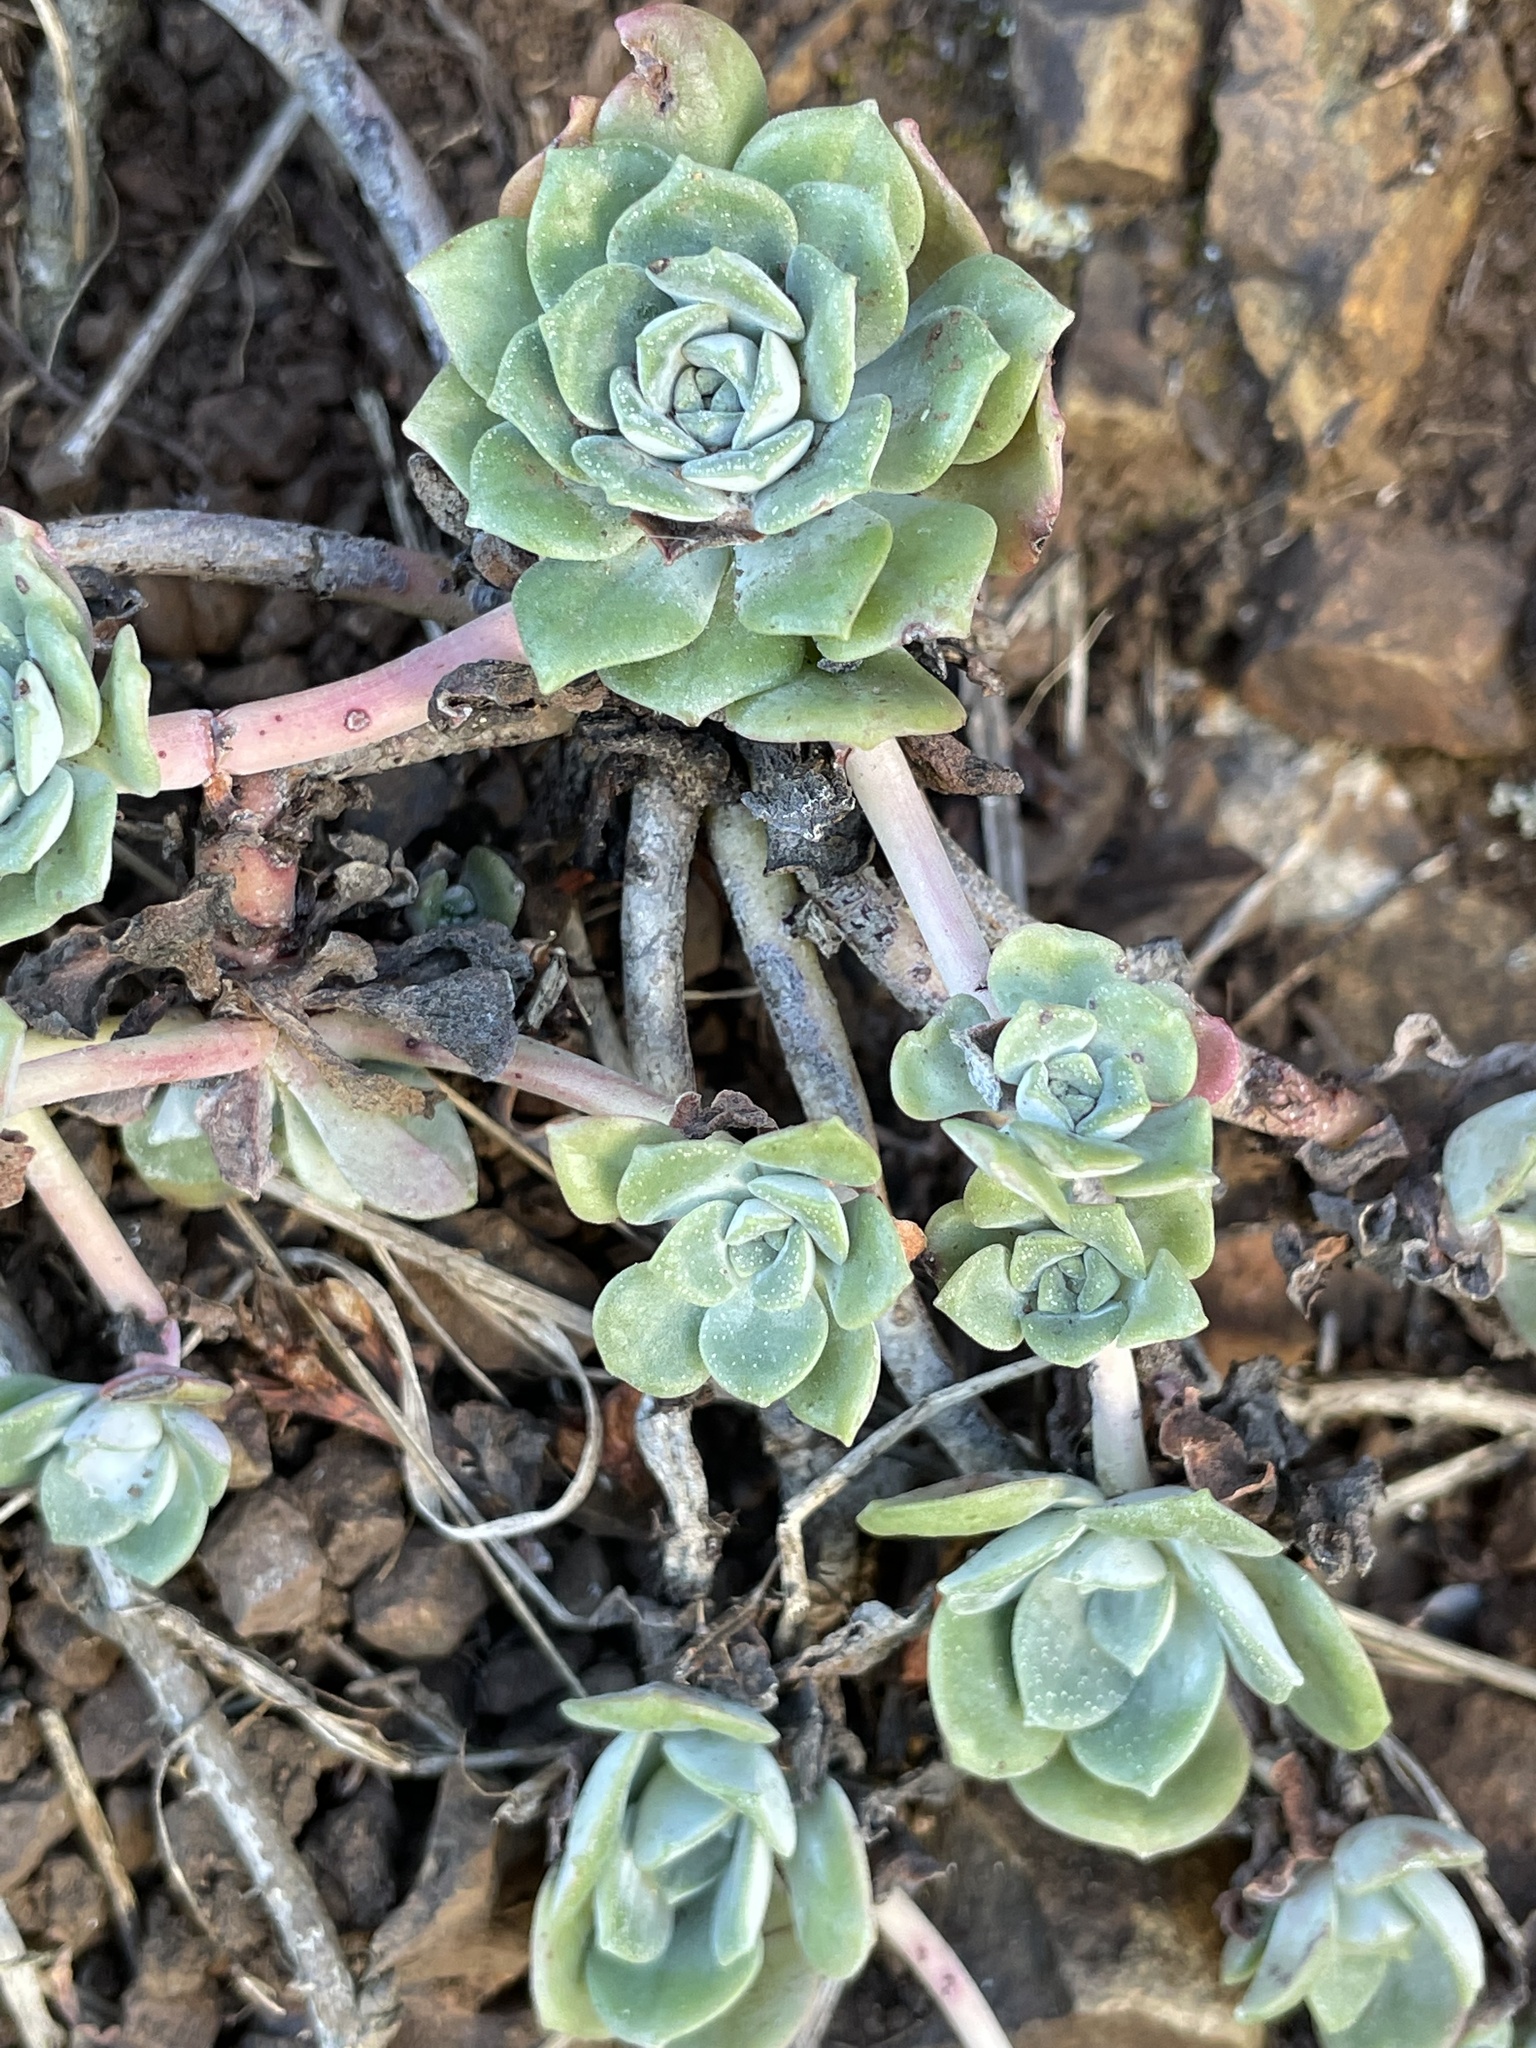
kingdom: Plantae
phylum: Tracheophyta
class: Magnoliopsida
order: Saxifragales
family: Crassulaceae
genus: Sedum
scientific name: Sedum spathulifolium
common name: Colorado stonecrop
